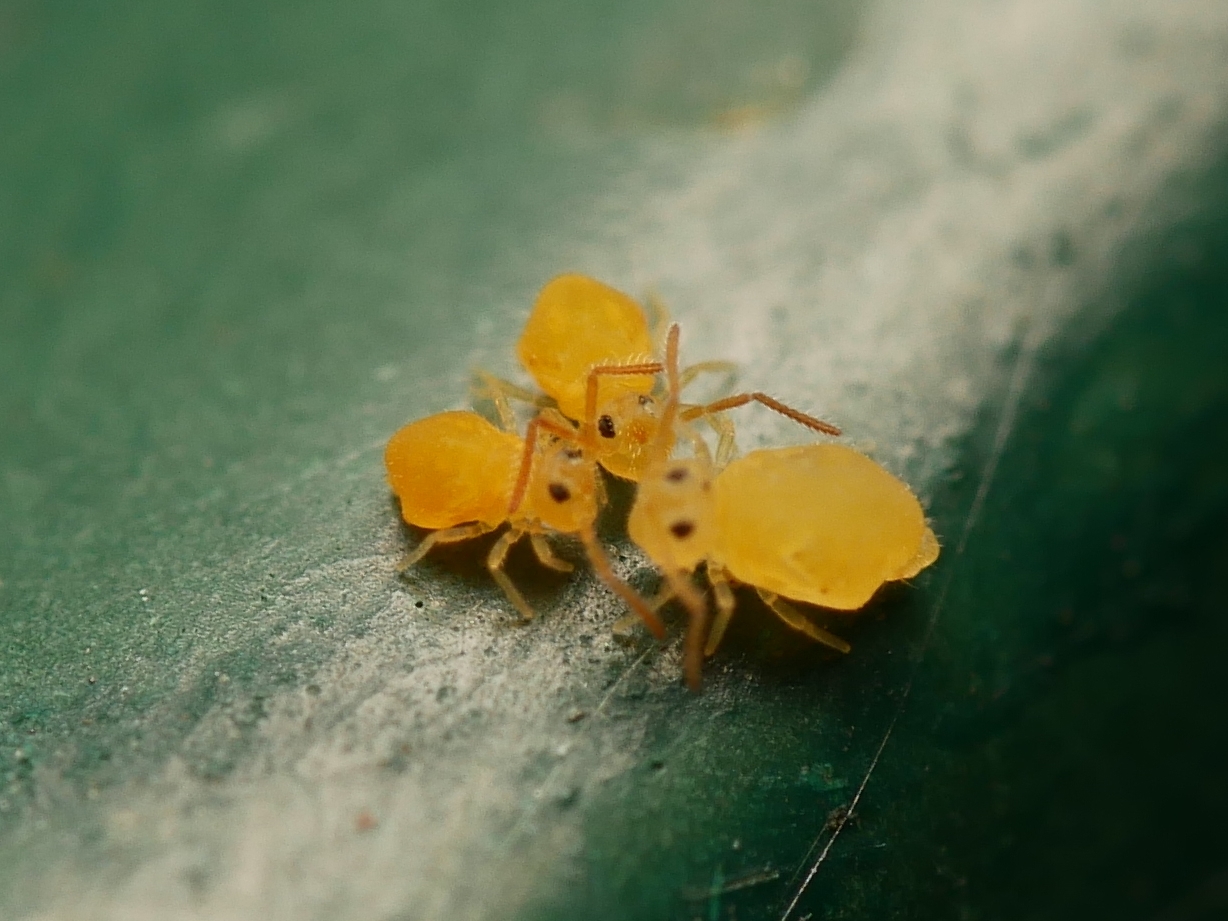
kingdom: Animalia
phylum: Arthropoda
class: Collembola
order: Symphypleona
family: Bourletiellidae
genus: Deuterosminthurus
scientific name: Deuterosminthurus pallipes
